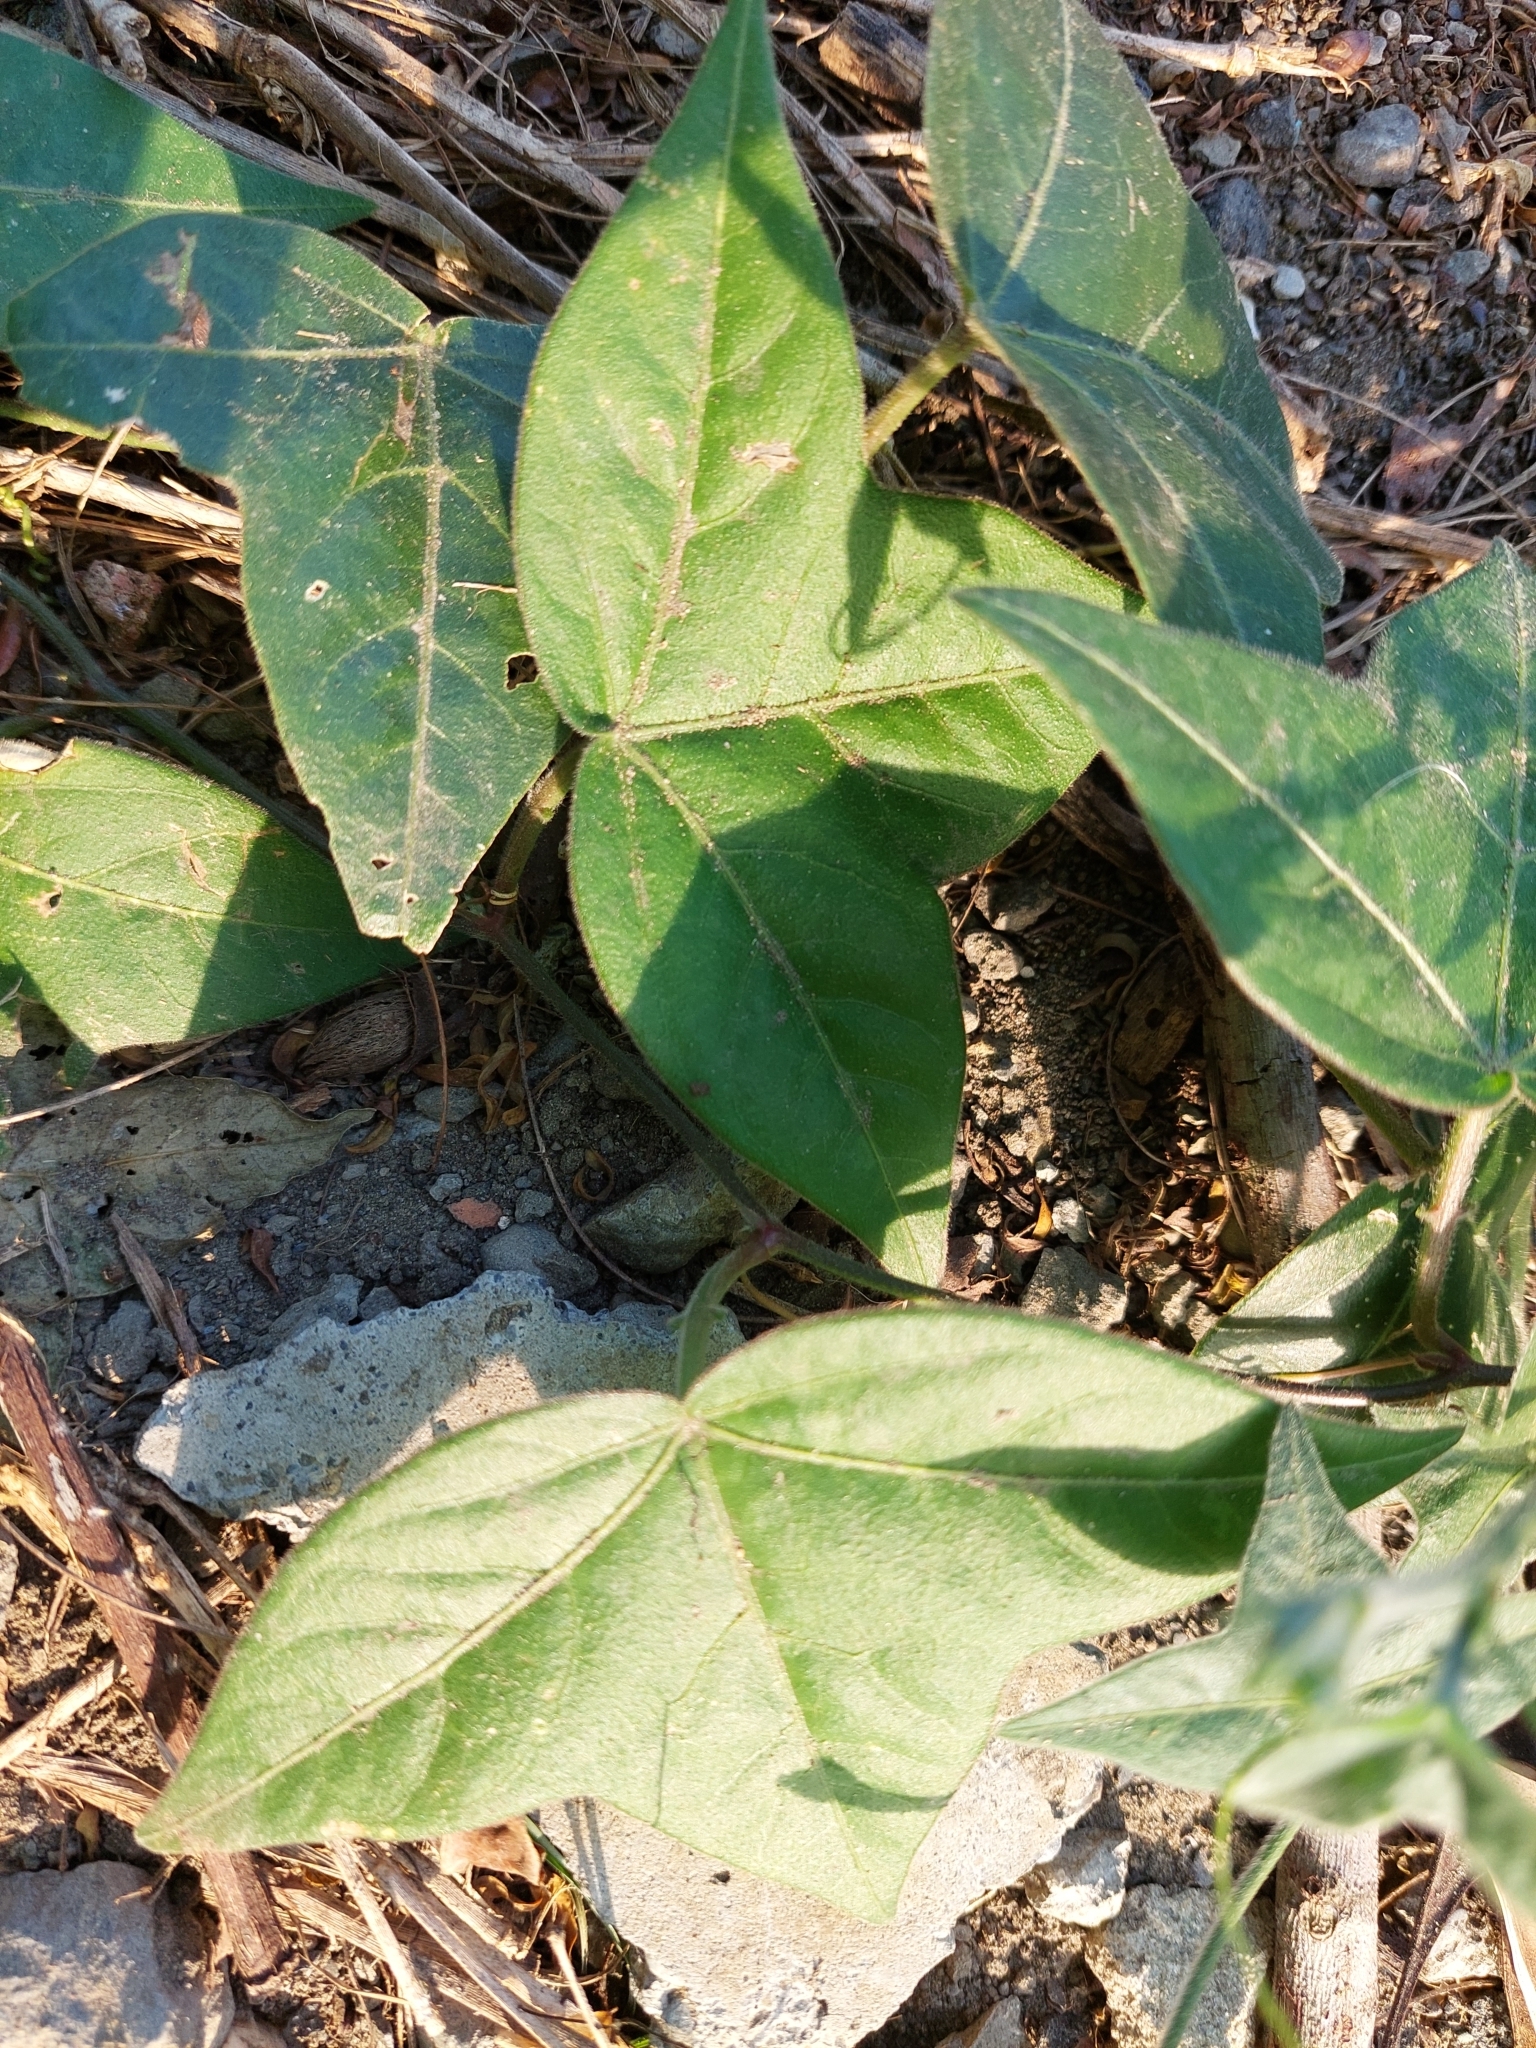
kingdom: Plantae
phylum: Tracheophyta
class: Magnoliopsida
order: Malpighiales
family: Passifloraceae
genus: Passiflora
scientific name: Passiflora suberosa
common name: Wild passionfruit
